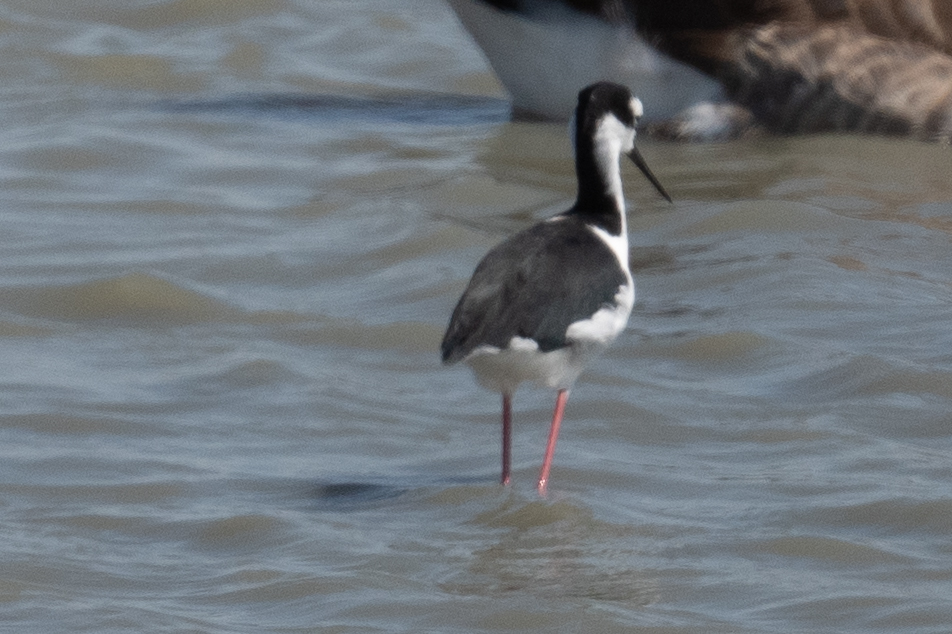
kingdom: Animalia
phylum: Chordata
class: Aves
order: Charadriiformes
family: Recurvirostridae
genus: Himantopus
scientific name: Himantopus mexicanus
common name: Black-necked stilt
